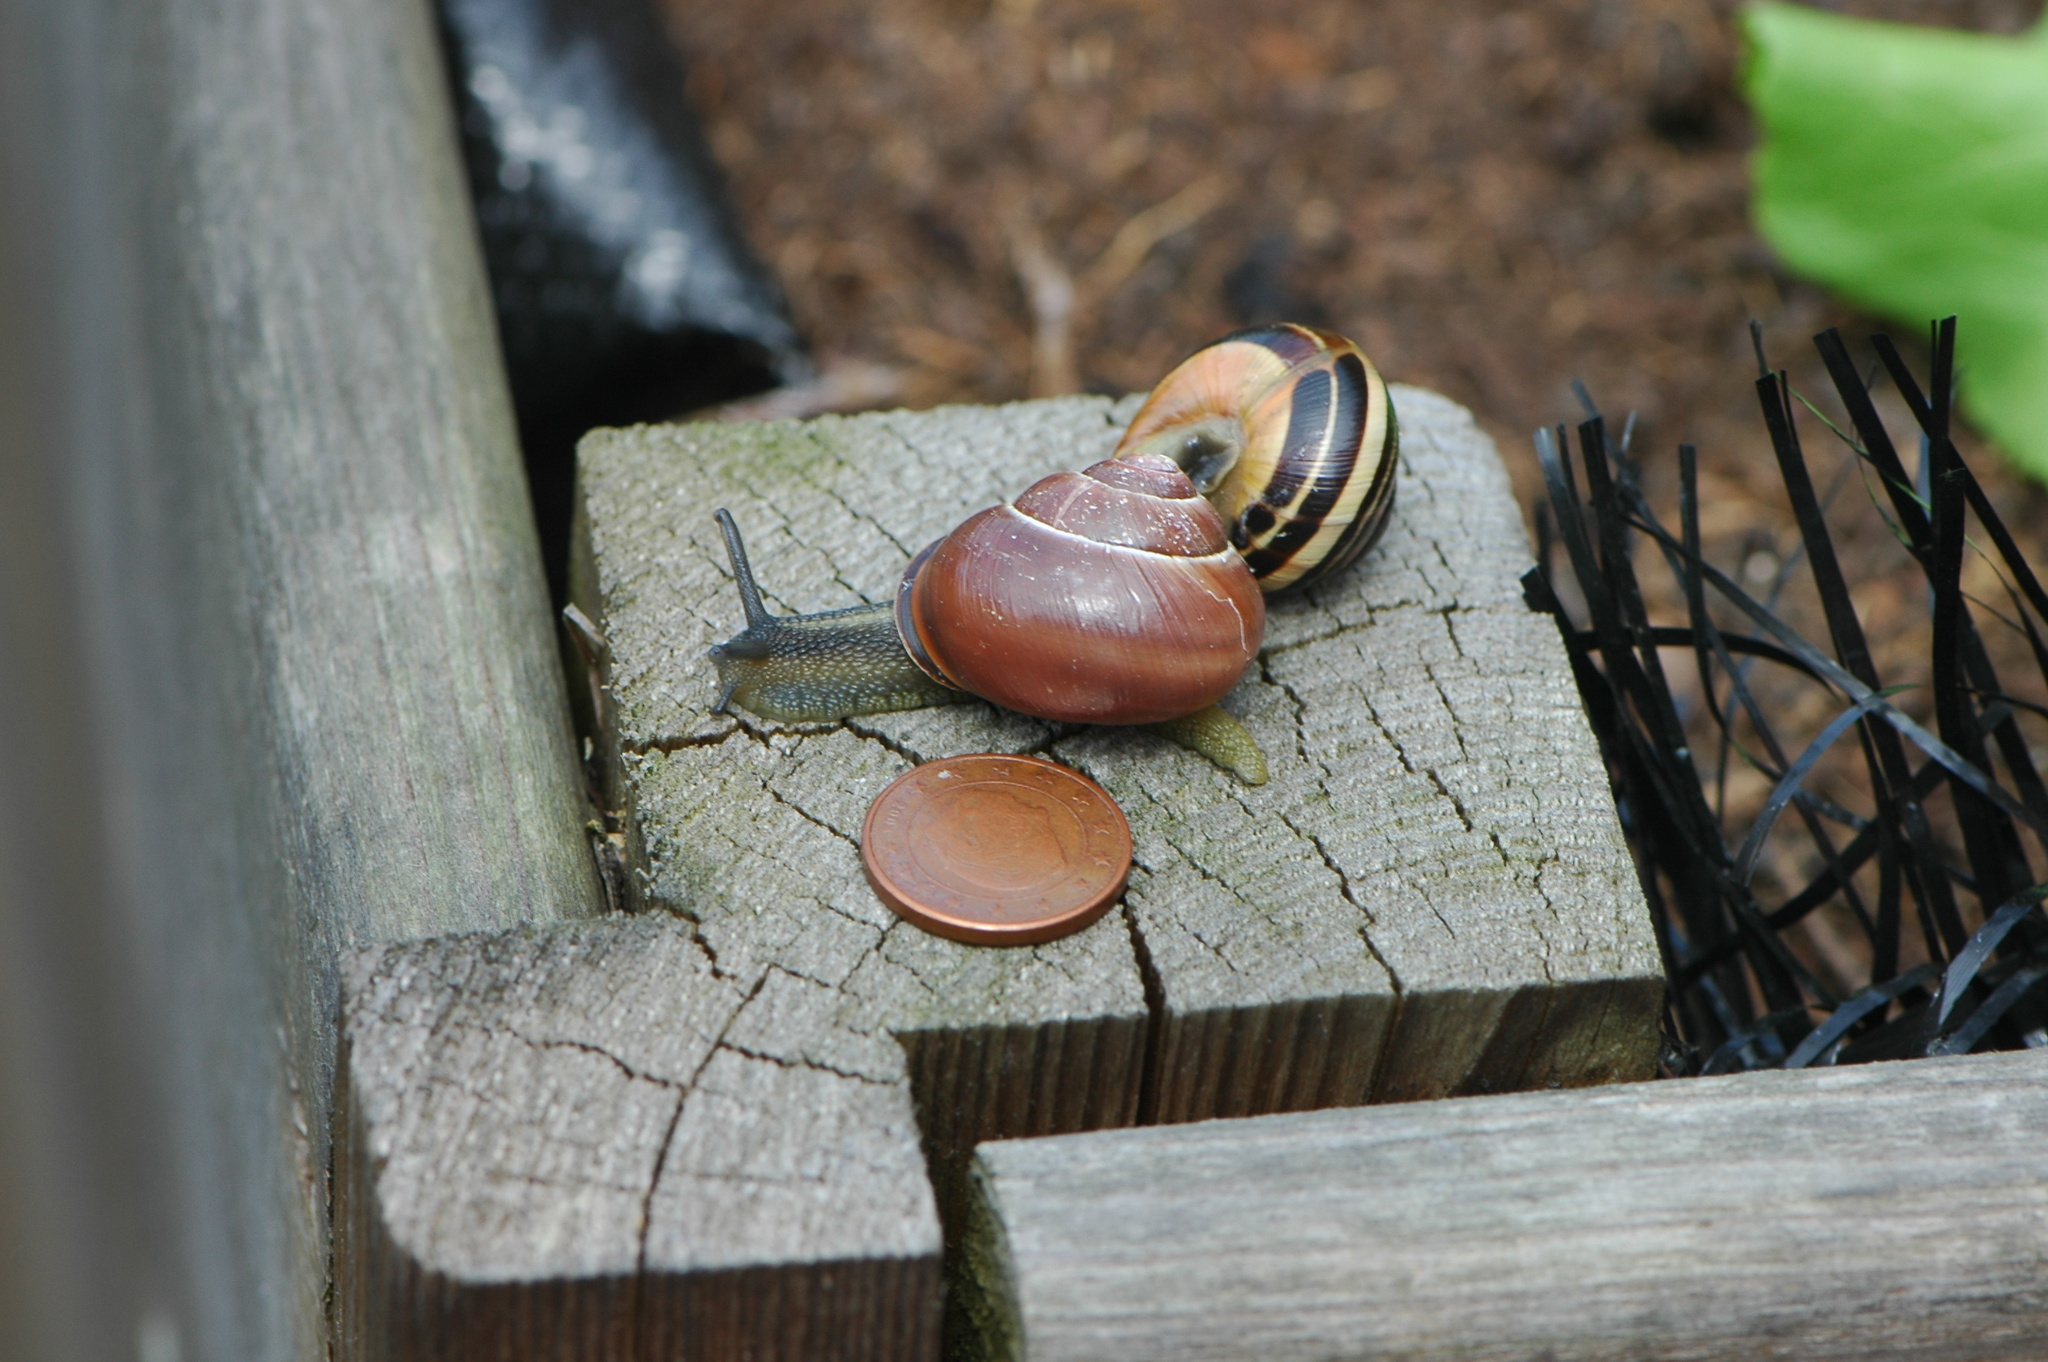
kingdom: Animalia
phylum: Mollusca
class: Gastropoda
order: Stylommatophora
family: Helicidae
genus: Cepaea
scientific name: Cepaea nemoralis
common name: Grovesnail
